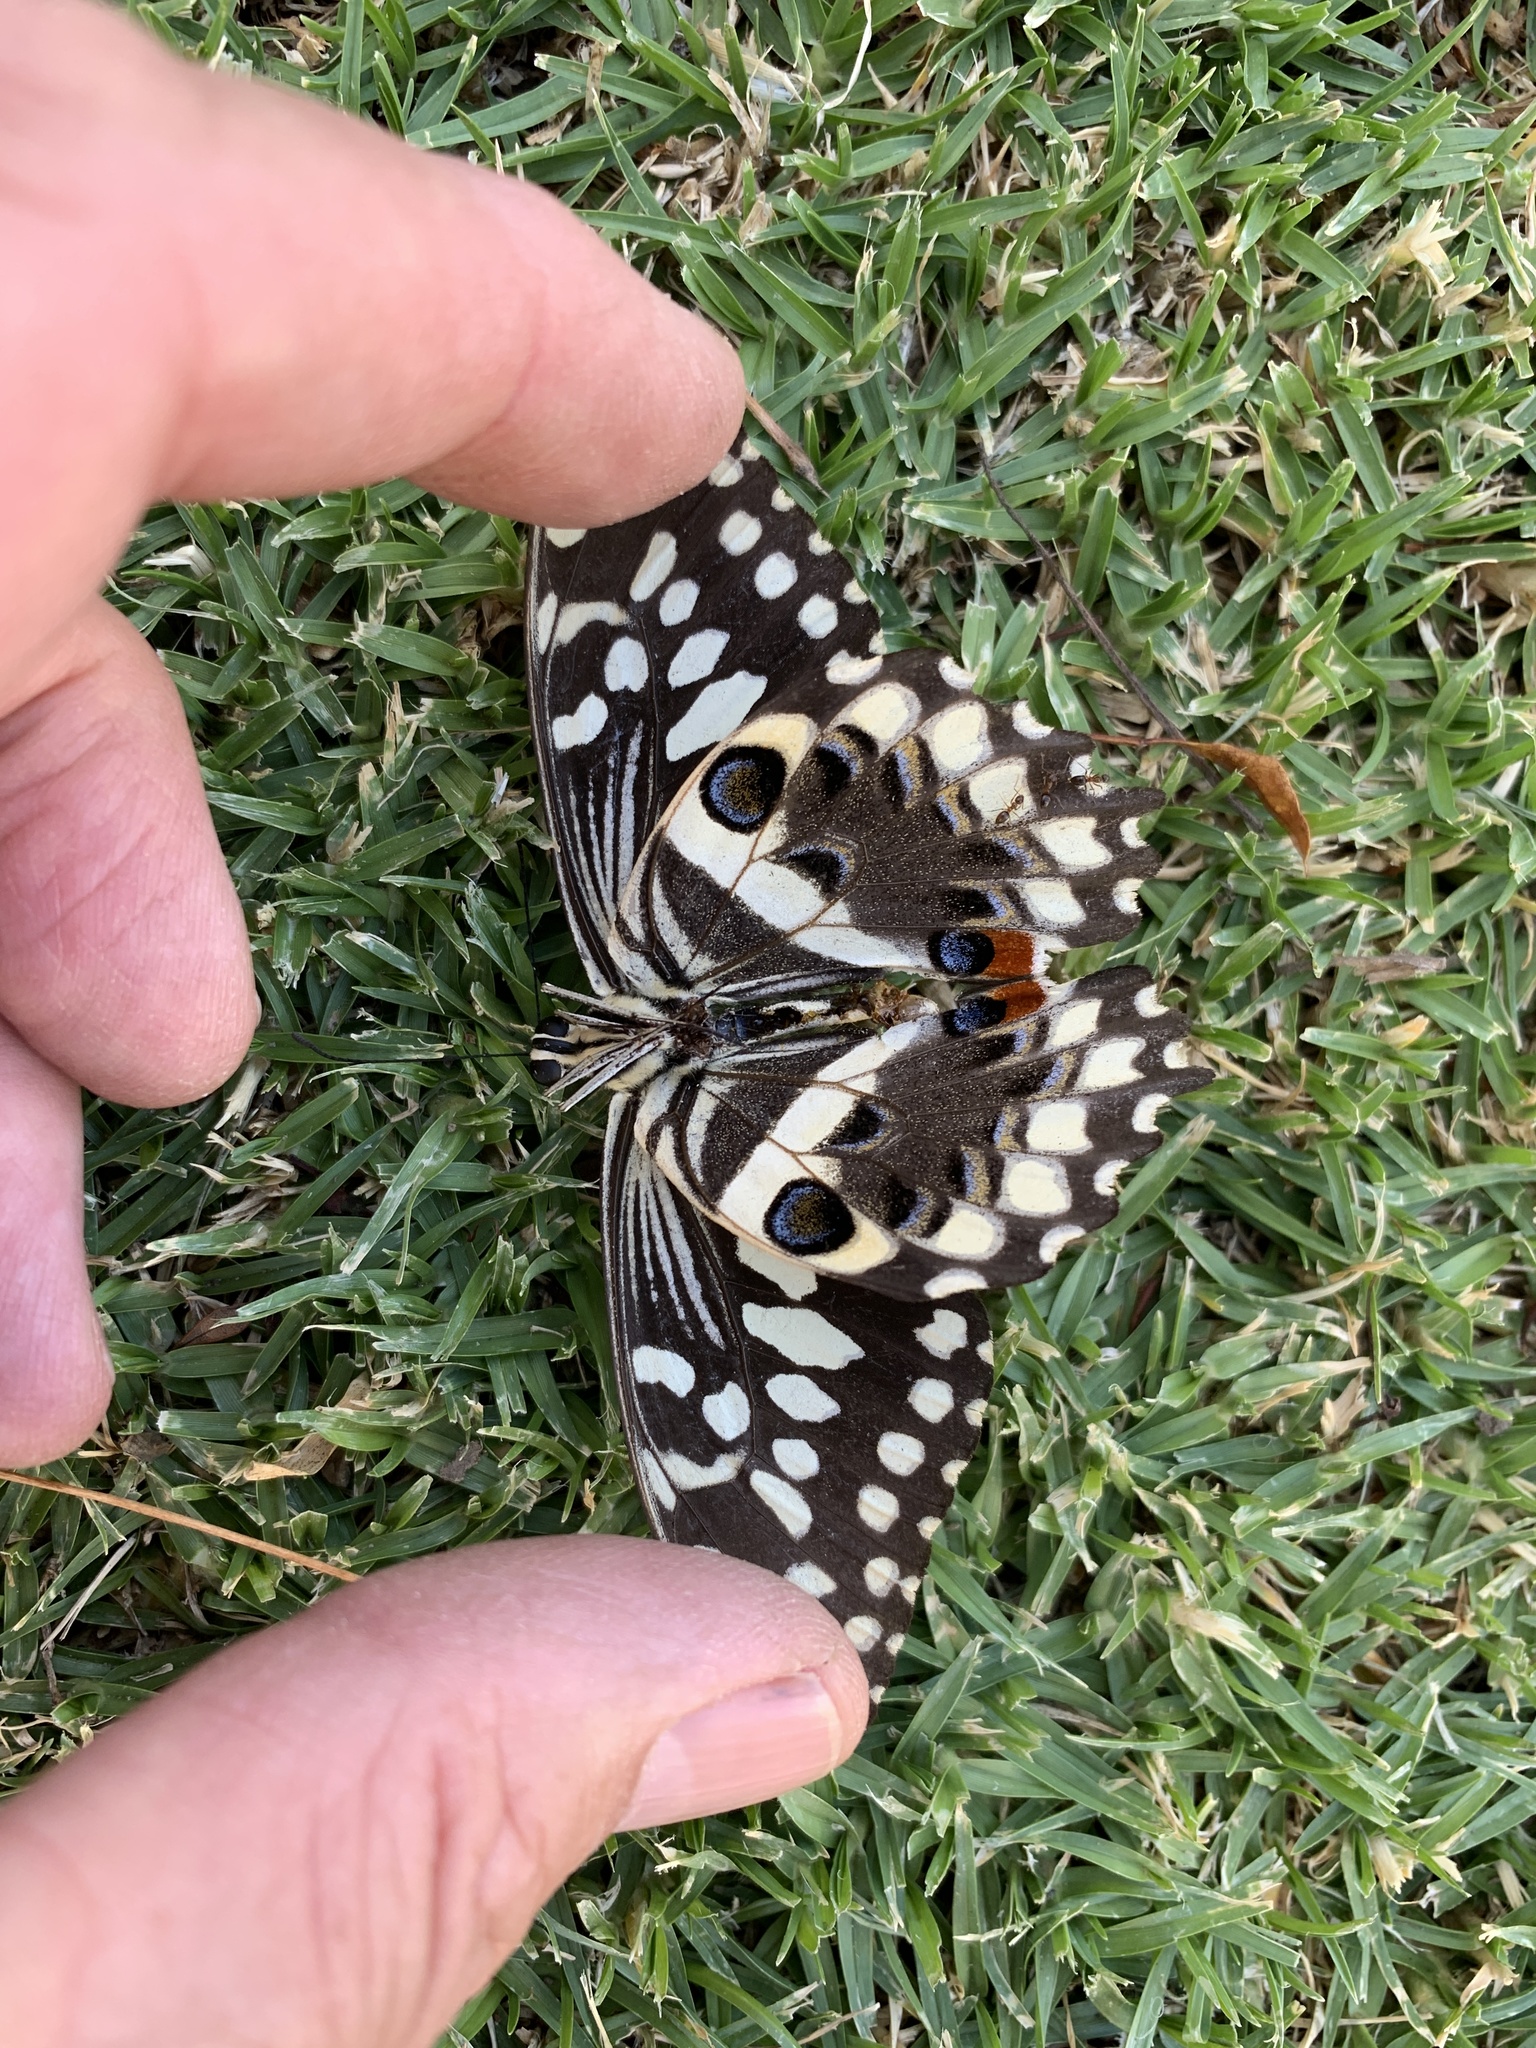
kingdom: Animalia
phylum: Arthropoda
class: Insecta
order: Lepidoptera
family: Papilionidae
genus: Papilio
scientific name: Papilio demodocus
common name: Christmas butterfly
